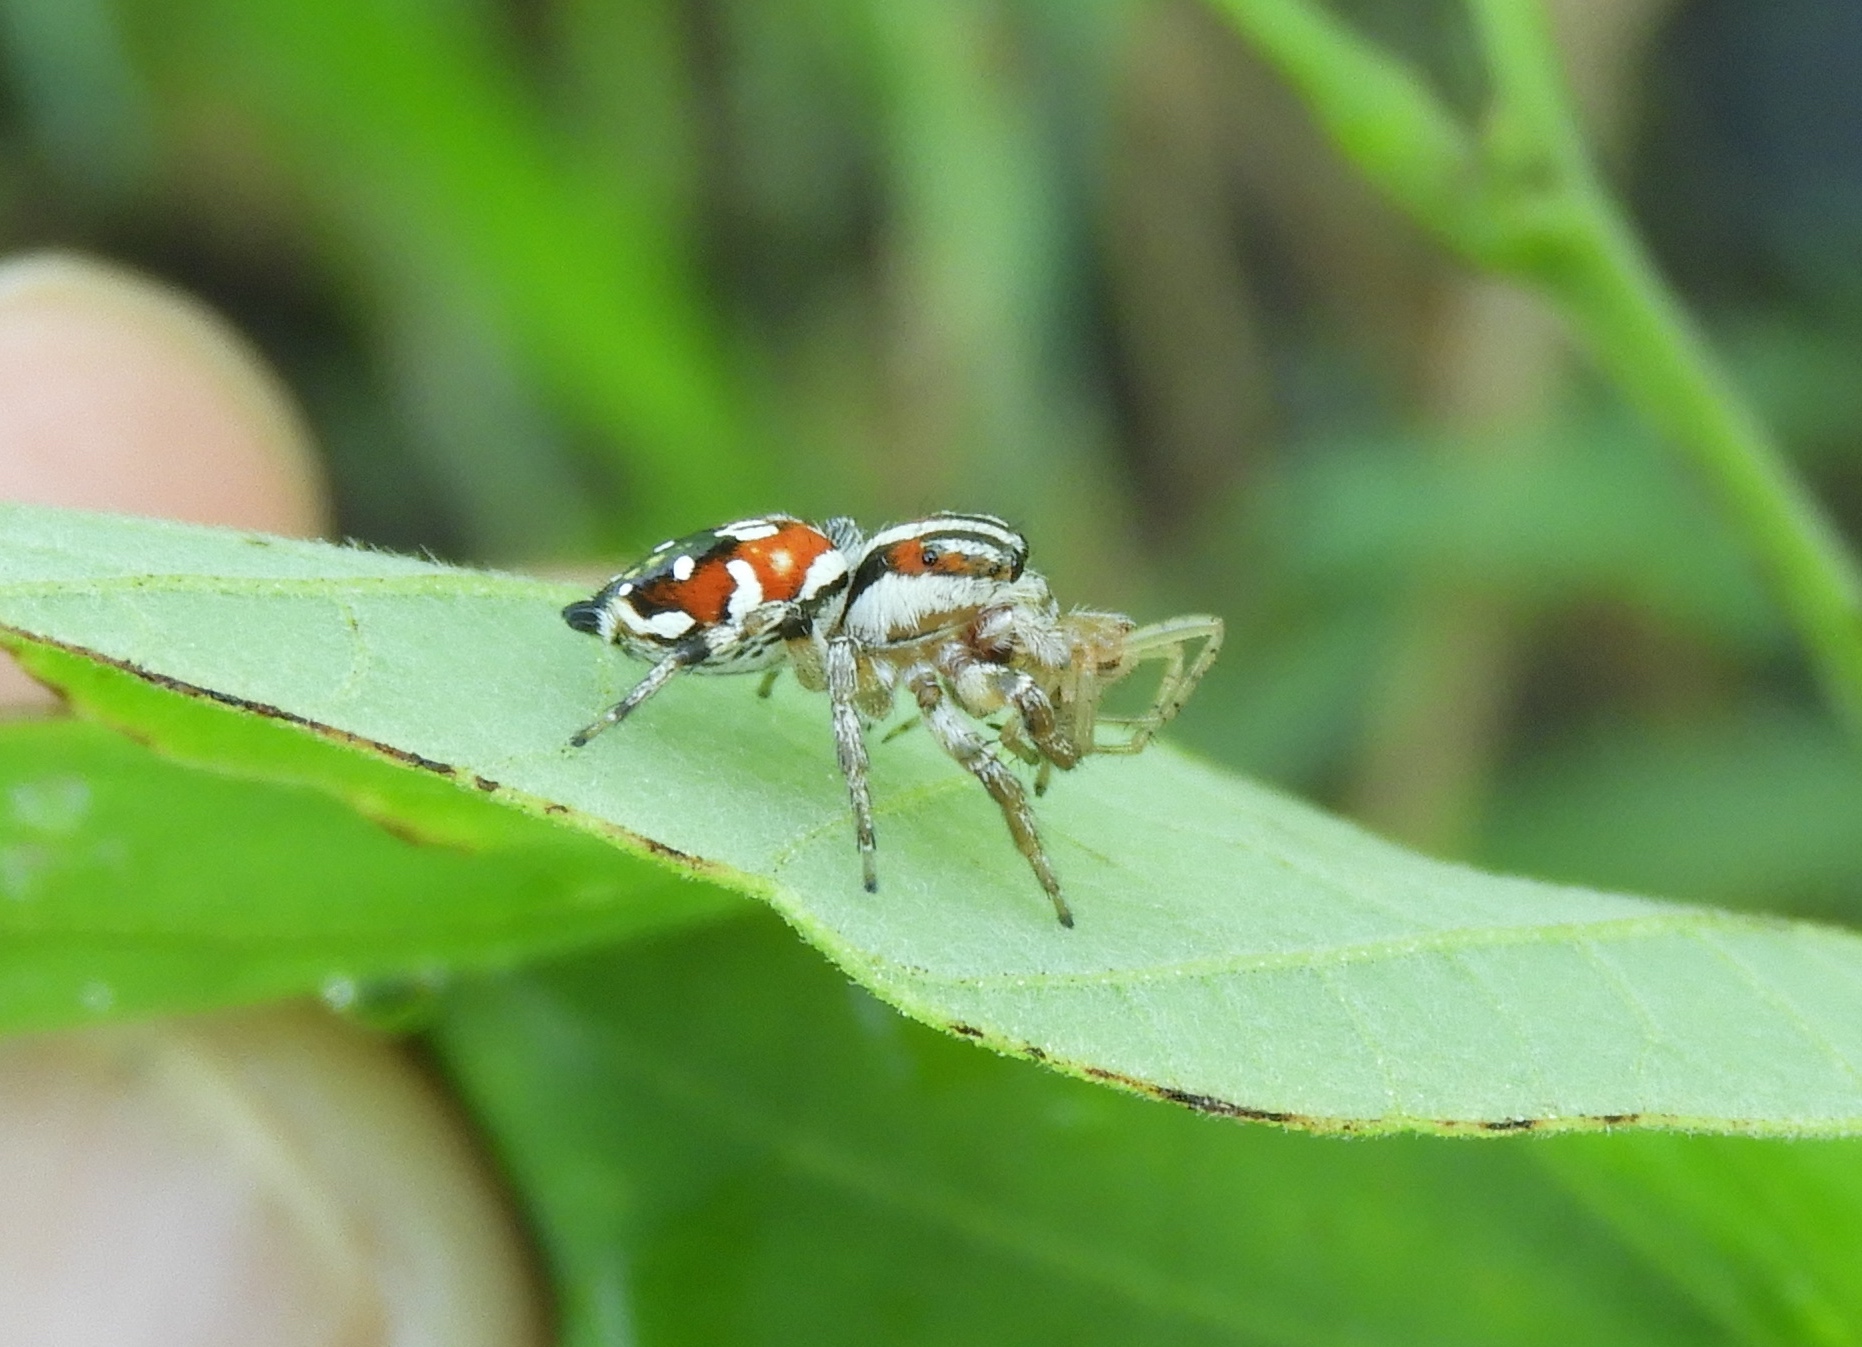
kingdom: Animalia
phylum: Arthropoda
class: Arachnida
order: Araneae
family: Salticidae
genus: Nycerella
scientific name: Nycerella delecta
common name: Jumping spiders
